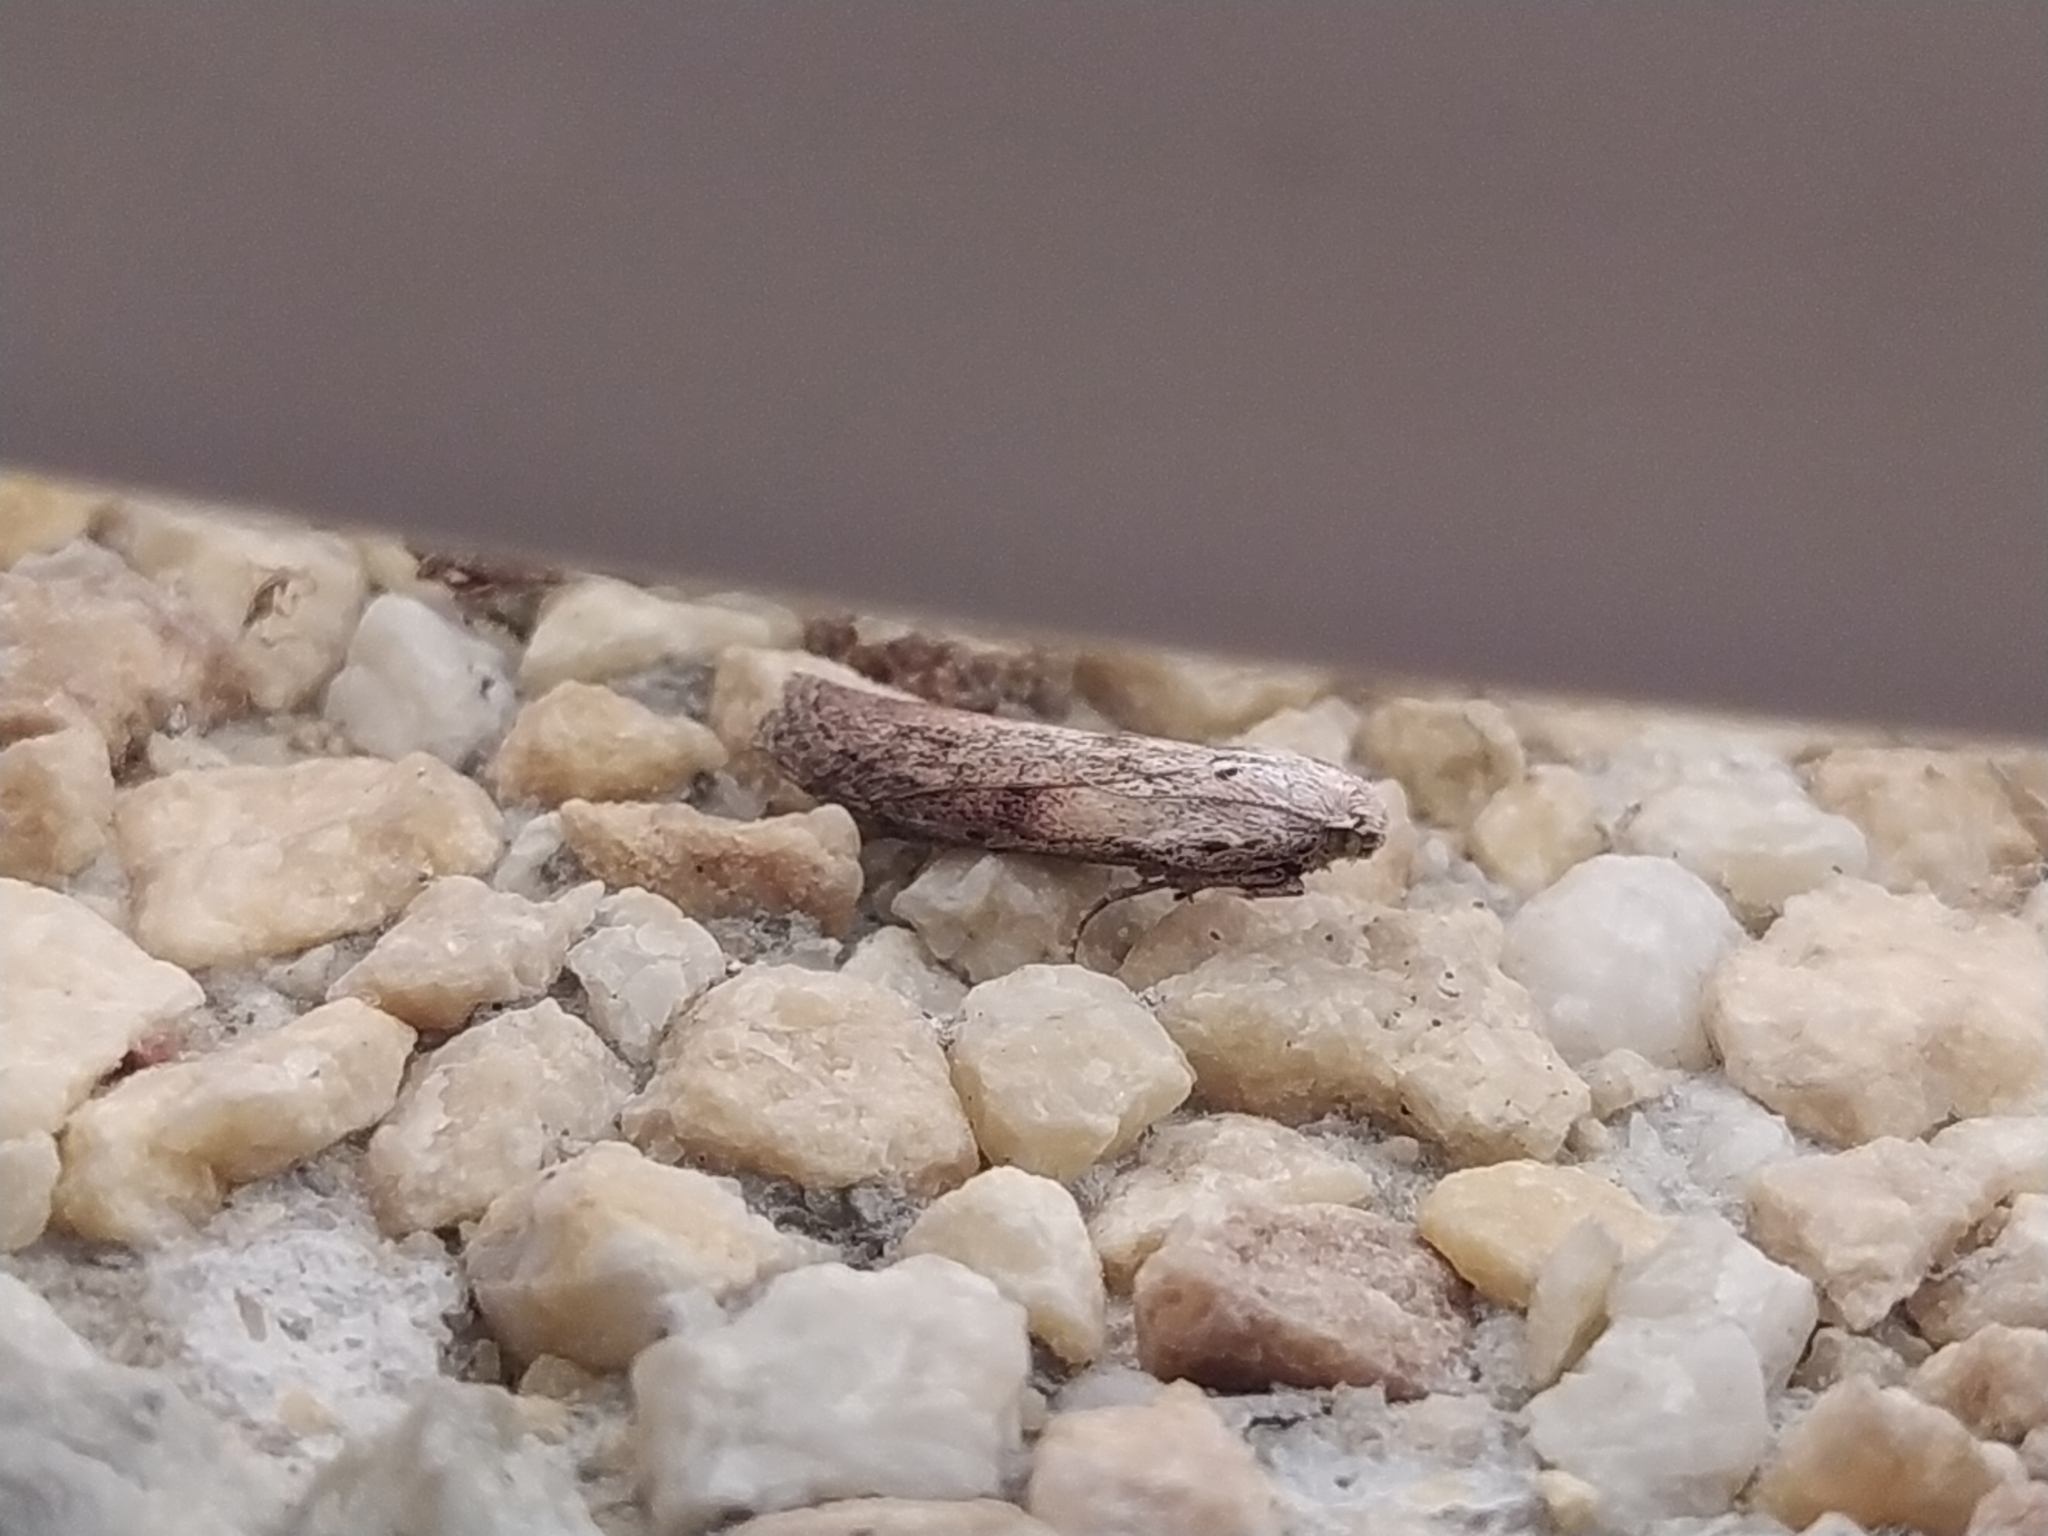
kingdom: Animalia
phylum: Arthropoda
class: Insecta
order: Lepidoptera
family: Pyralidae
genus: Aphomia
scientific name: Aphomia sociella
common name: Bee moth
